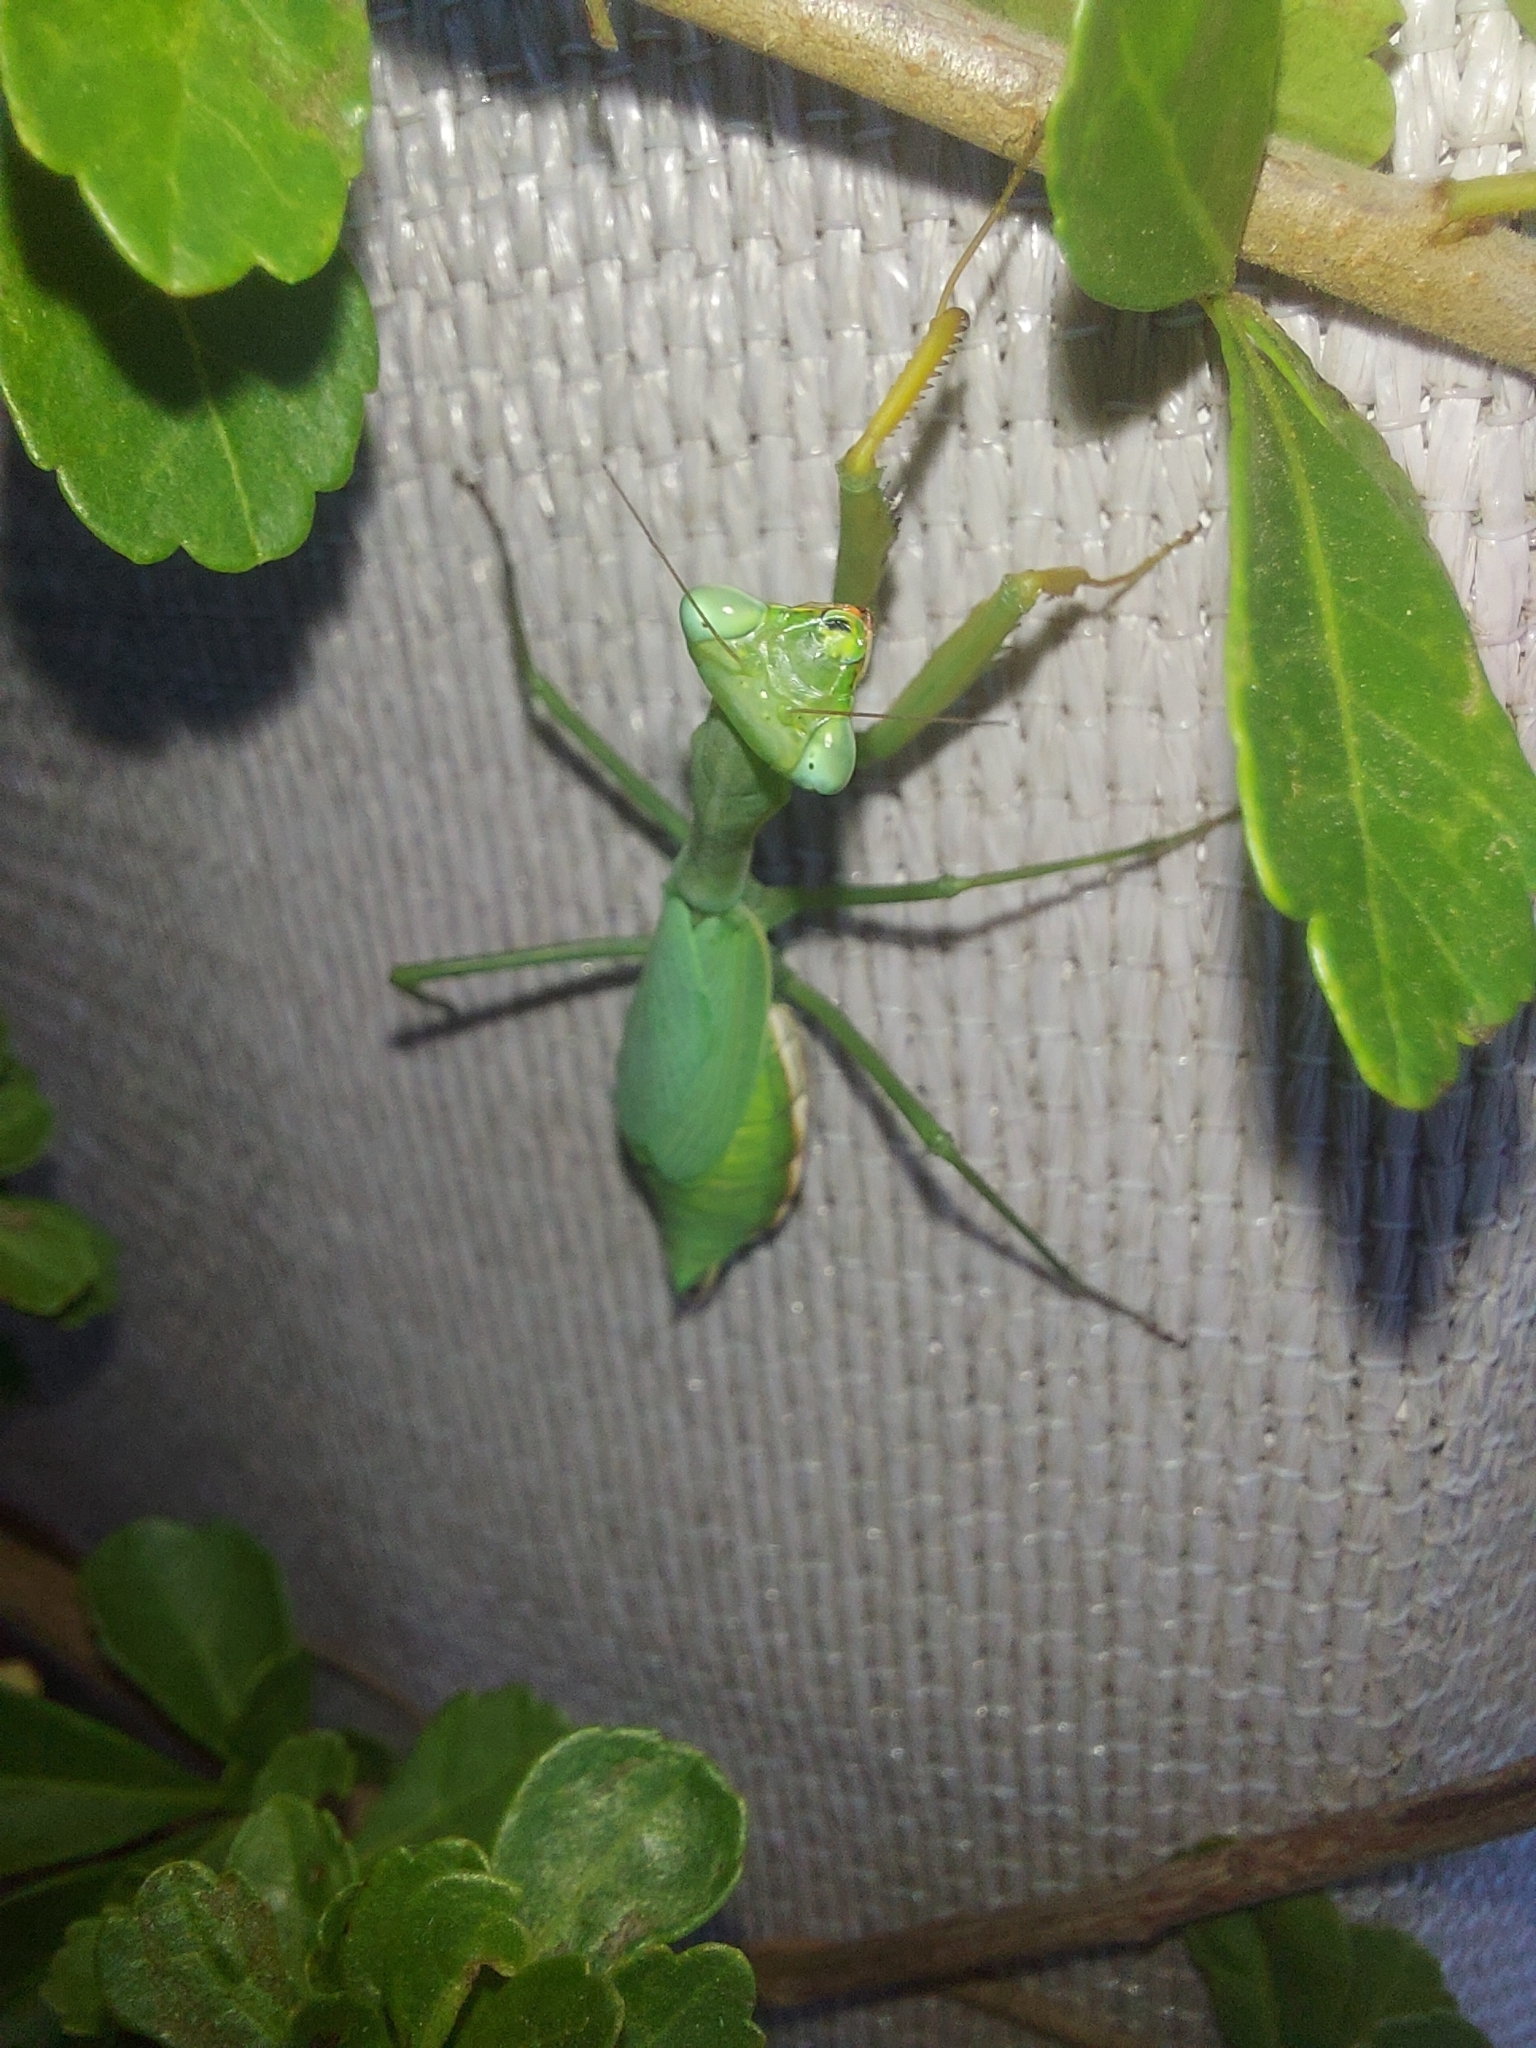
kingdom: Animalia
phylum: Arthropoda
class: Insecta
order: Mantodea
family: Miomantidae
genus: Miomantis
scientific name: Miomantis caffra
